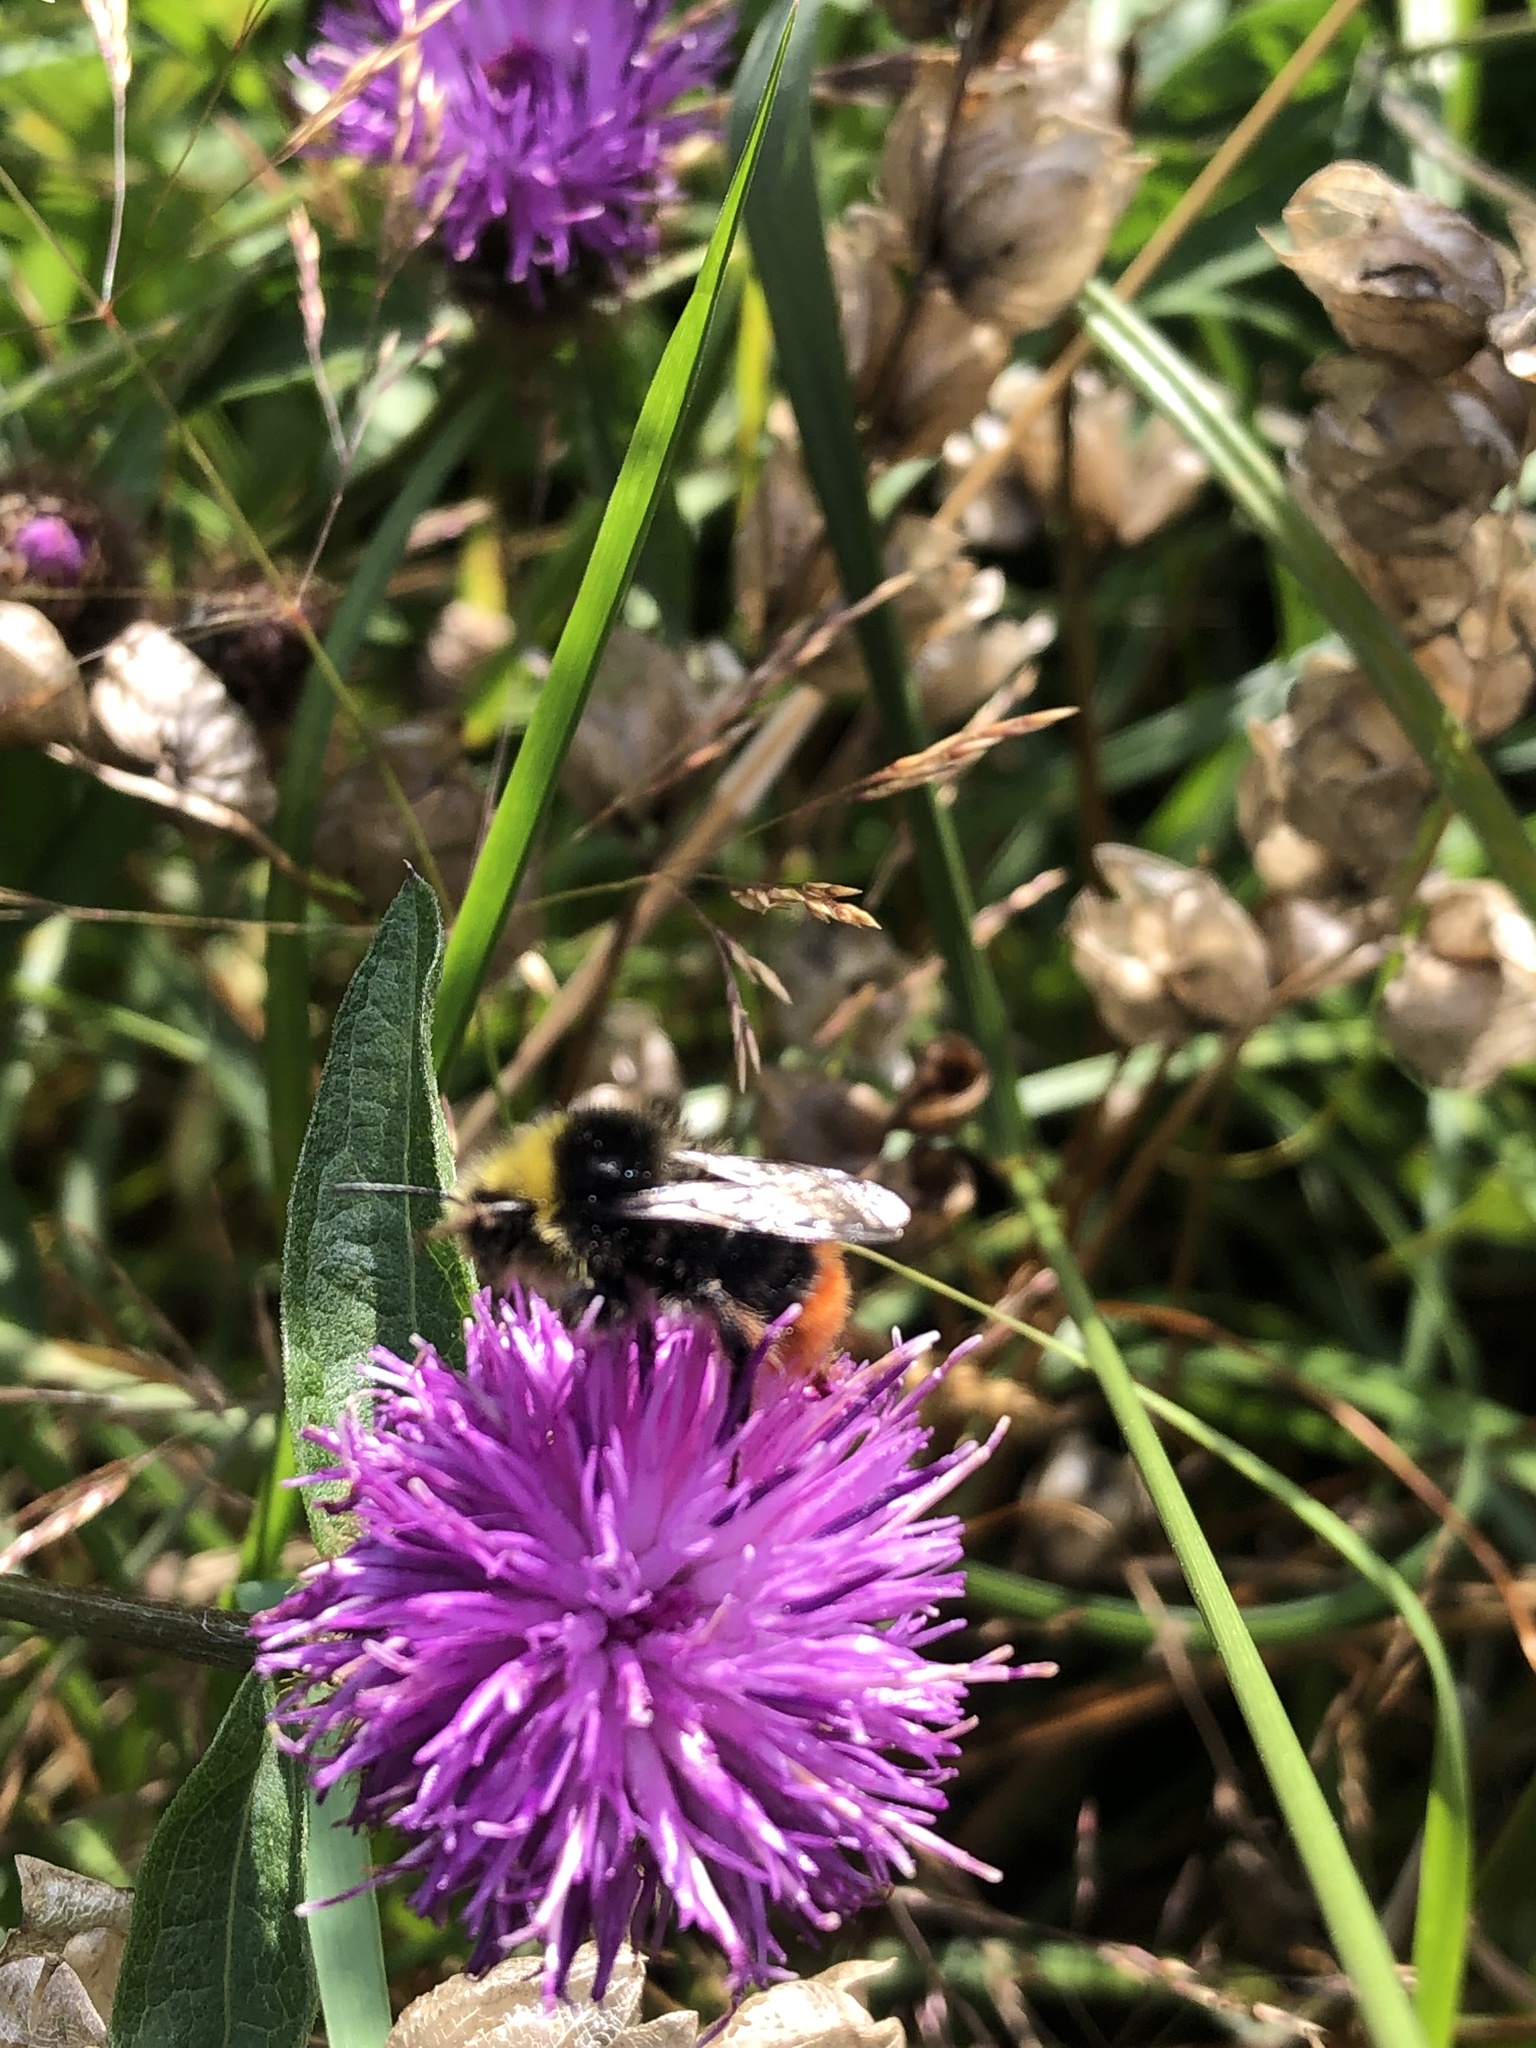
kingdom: Animalia
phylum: Arthropoda
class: Insecta
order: Hymenoptera
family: Apidae
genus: Bombus
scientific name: Bombus lapidarius
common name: Large red-tailed humble-bee
